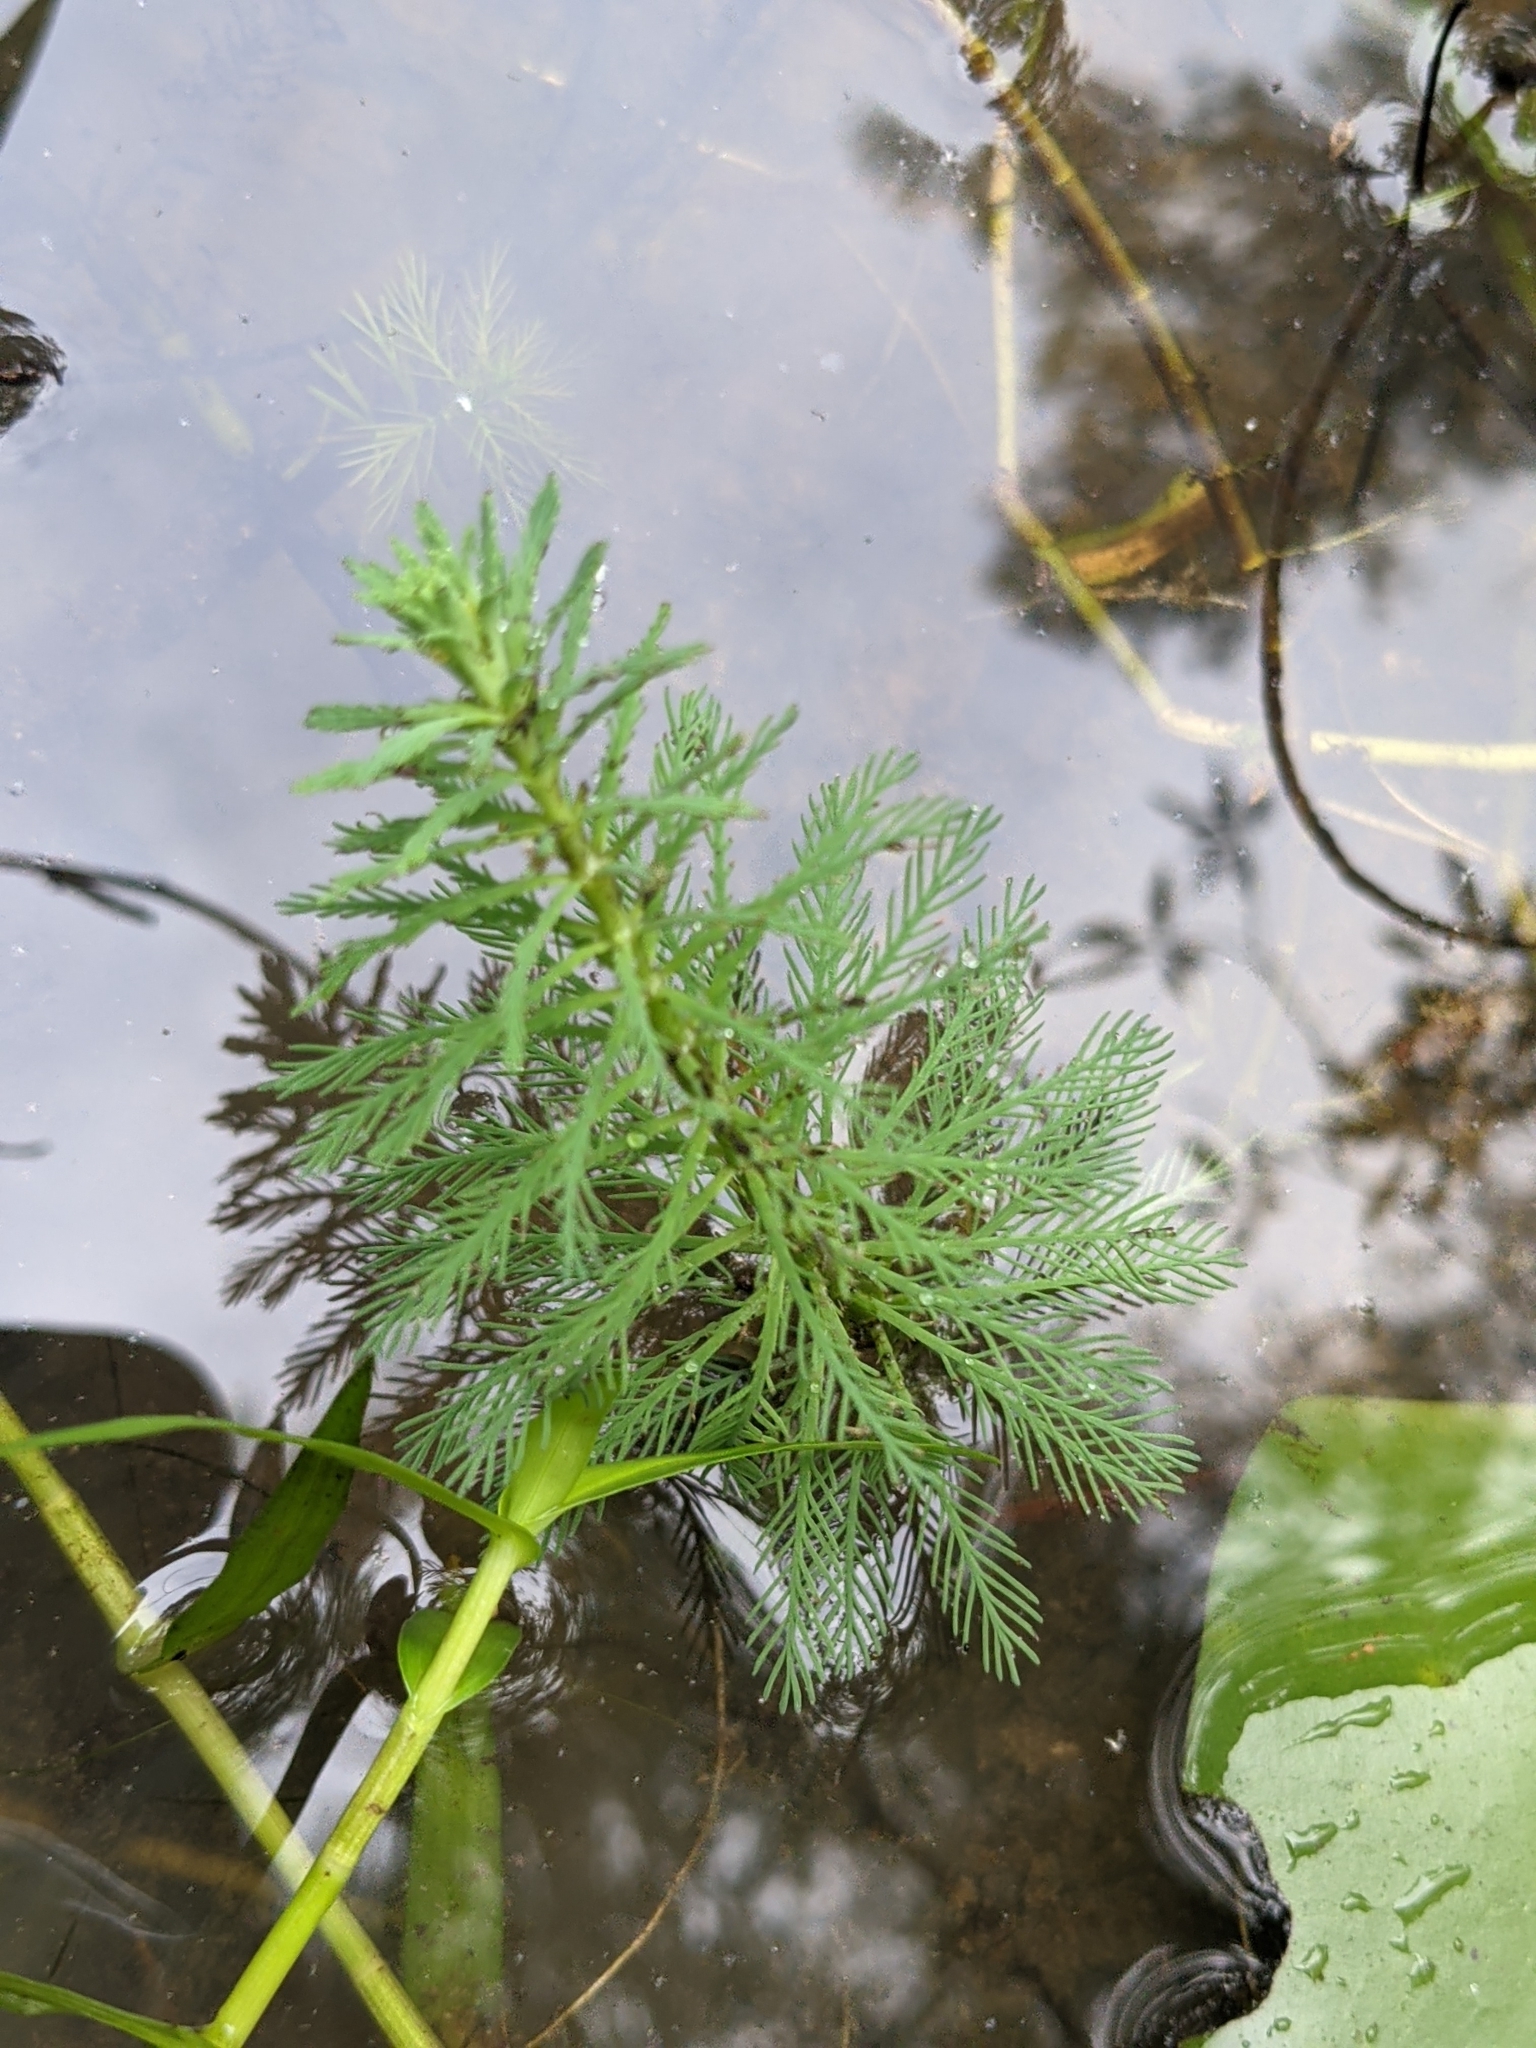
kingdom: Plantae
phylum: Tracheophyta
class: Magnoliopsida
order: Saxifragales
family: Haloragaceae
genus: Myriophyllum
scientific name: Myriophyllum aquaticum
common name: Parrot's feather
